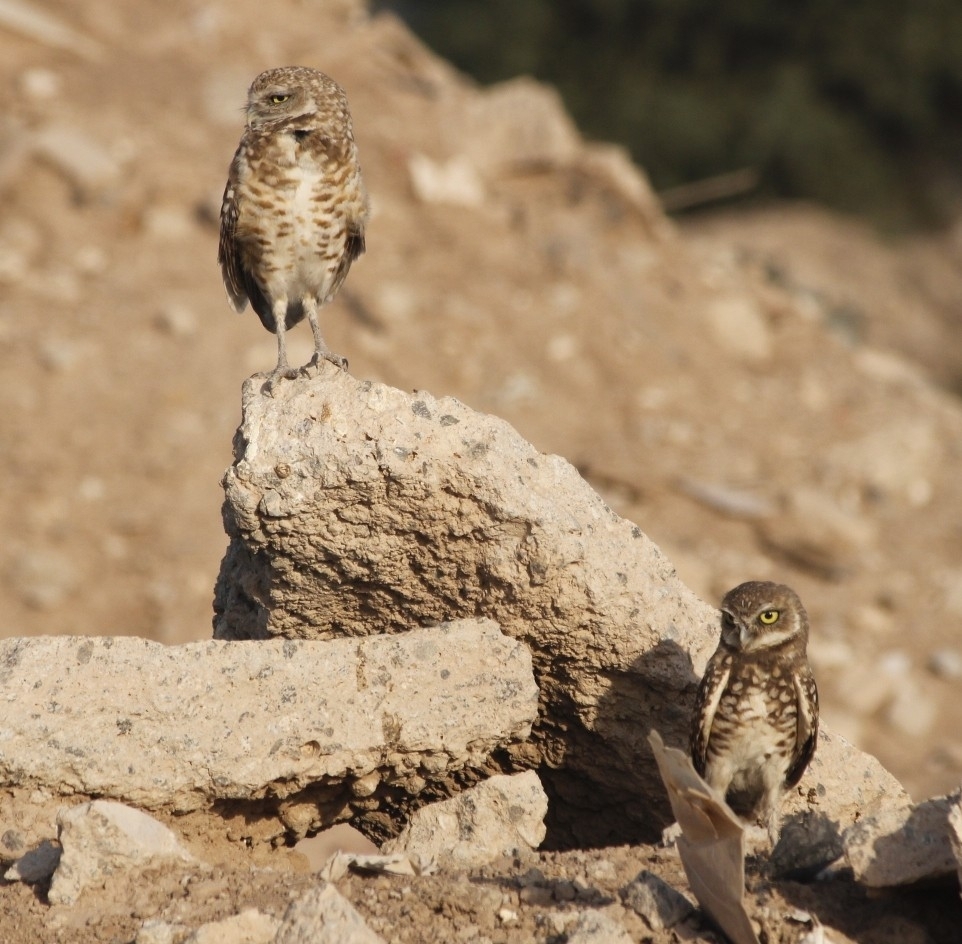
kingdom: Animalia
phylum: Chordata
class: Aves
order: Strigiformes
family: Strigidae
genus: Athene
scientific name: Athene cunicularia
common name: Burrowing owl
